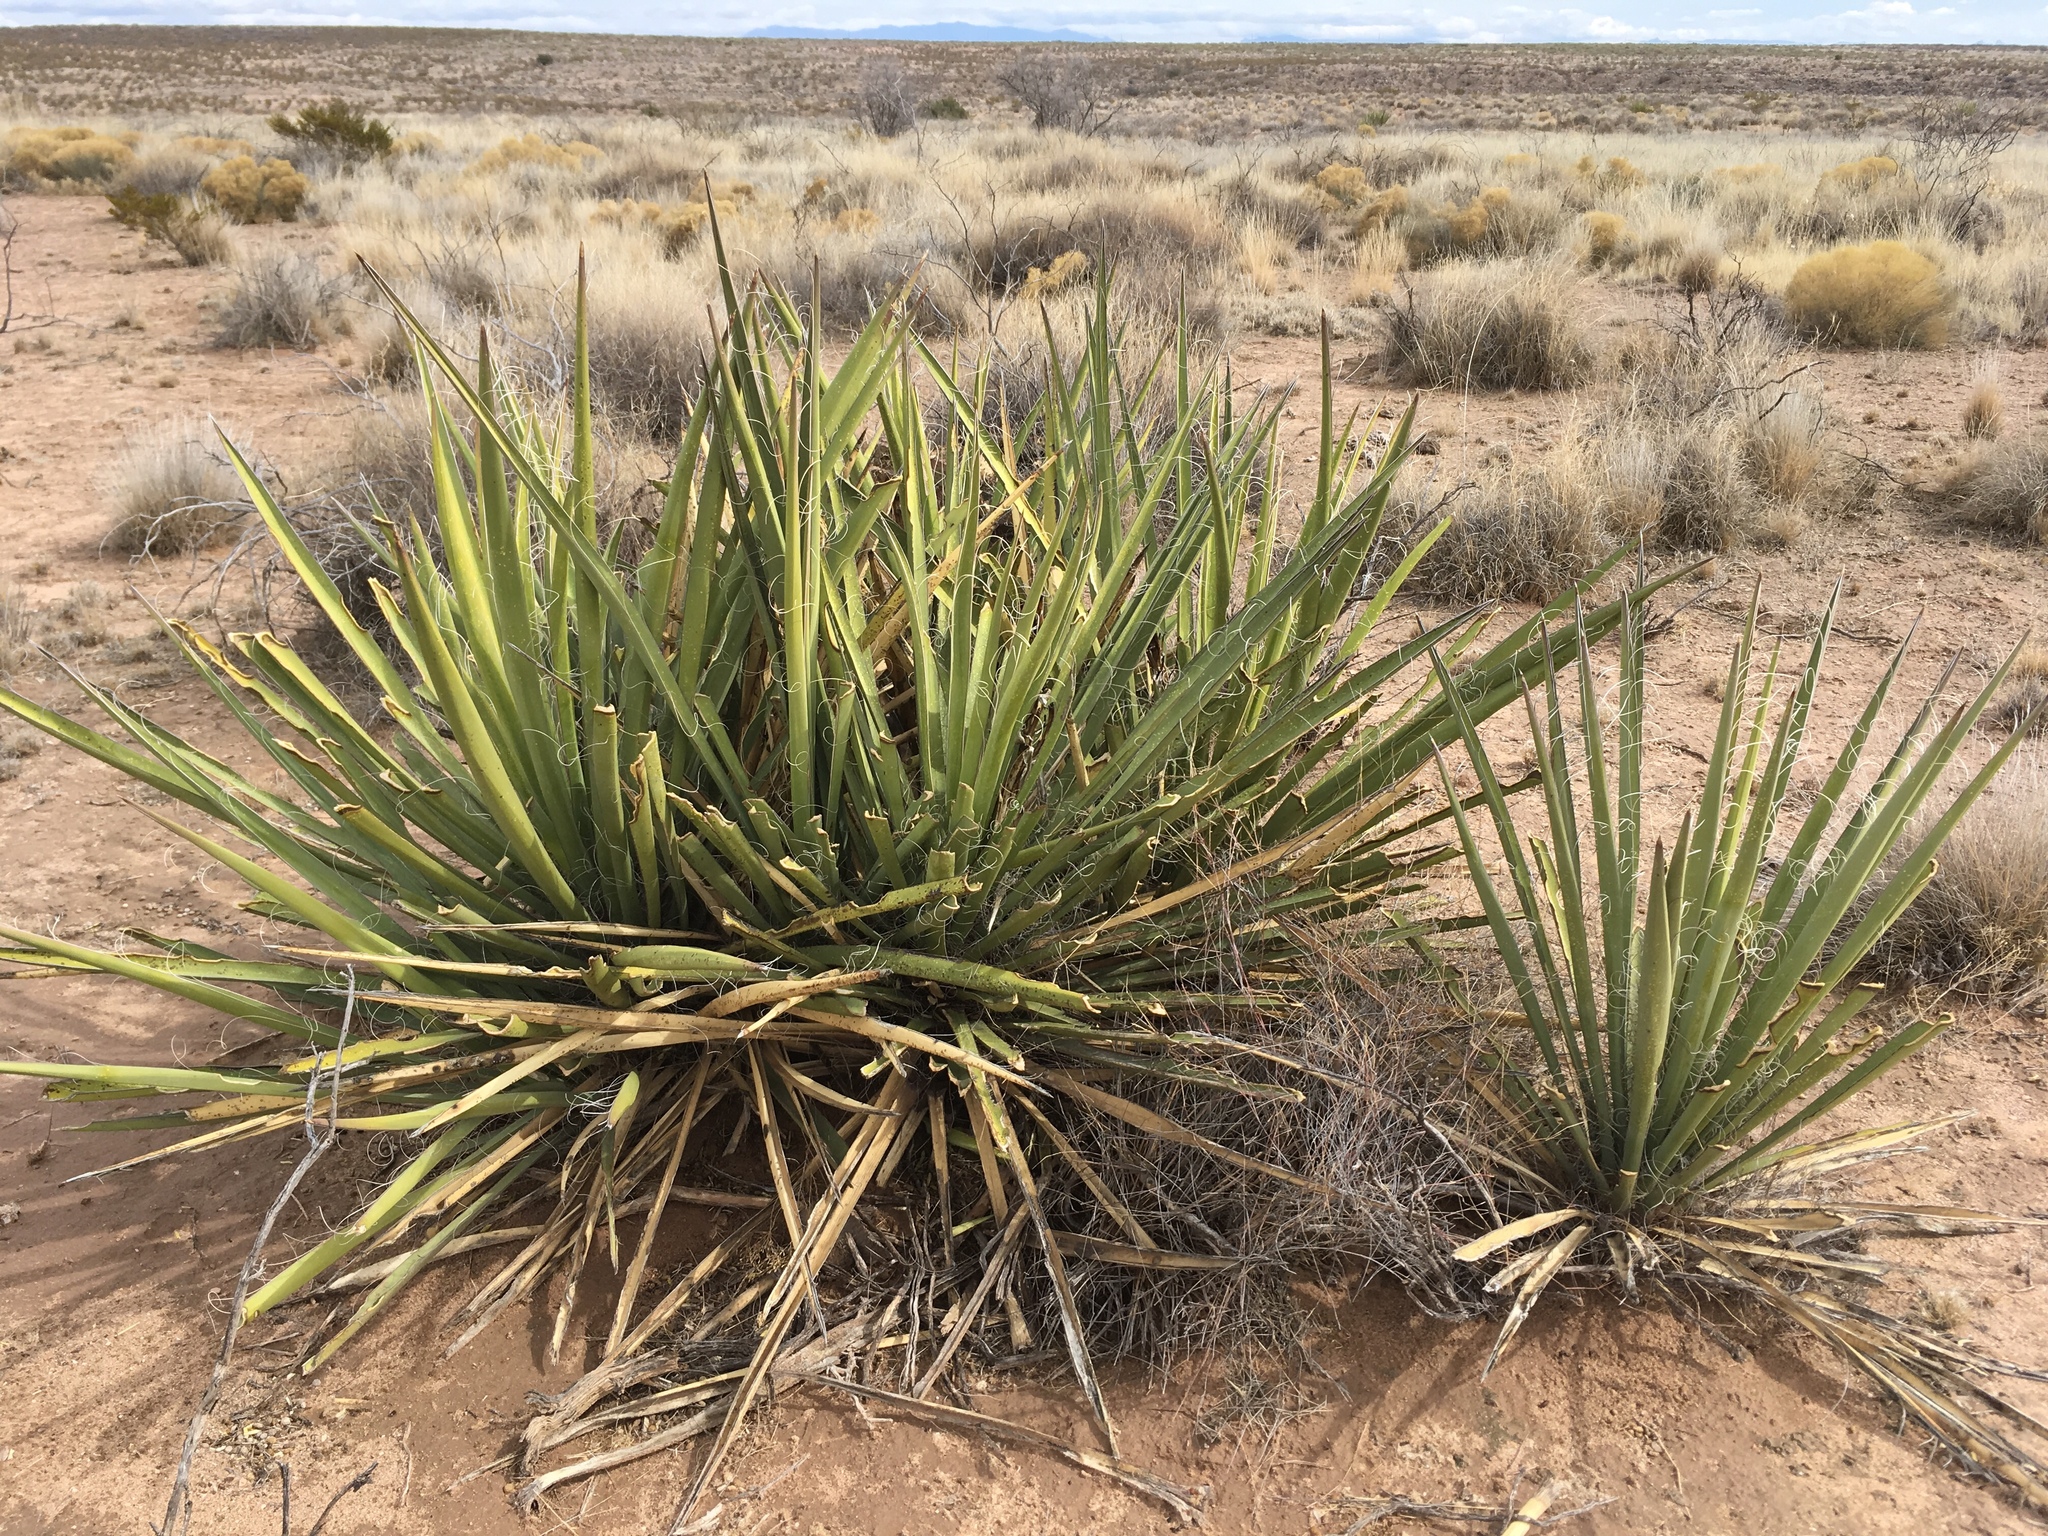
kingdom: Plantae
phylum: Tracheophyta
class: Liliopsida
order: Asparagales
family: Asparagaceae
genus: Yucca
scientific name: Yucca baccata
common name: Banana yucca
